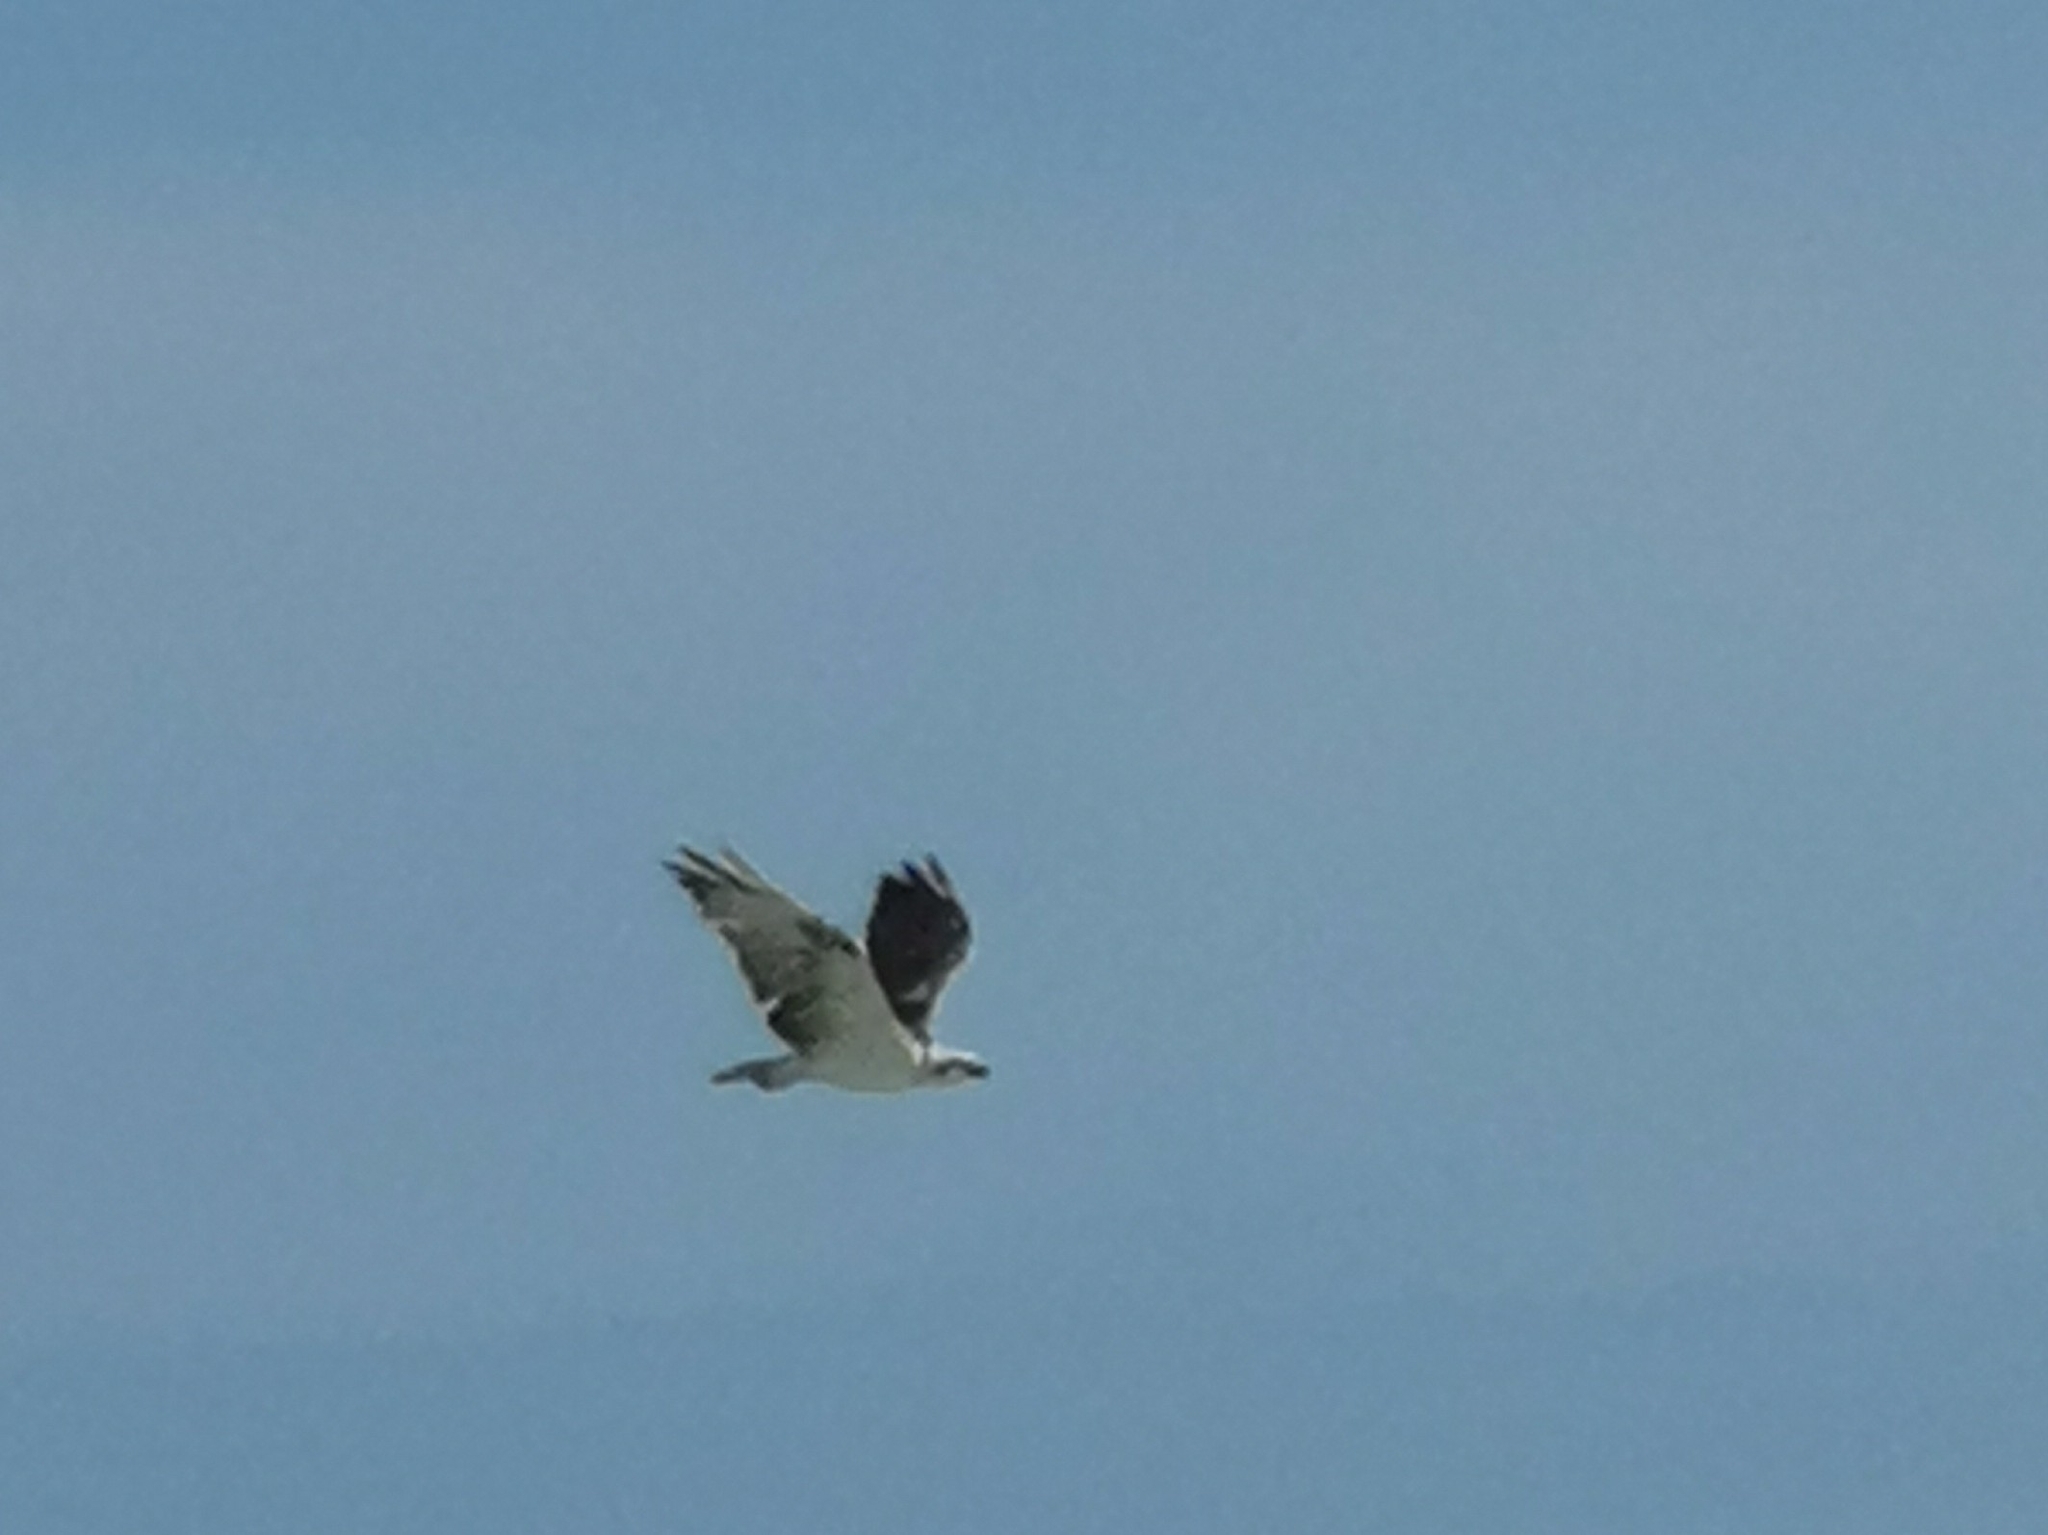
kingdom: Animalia
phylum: Chordata
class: Aves
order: Accipitriformes
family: Pandionidae
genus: Pandion
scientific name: Pandion haliaetus
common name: Osprey
